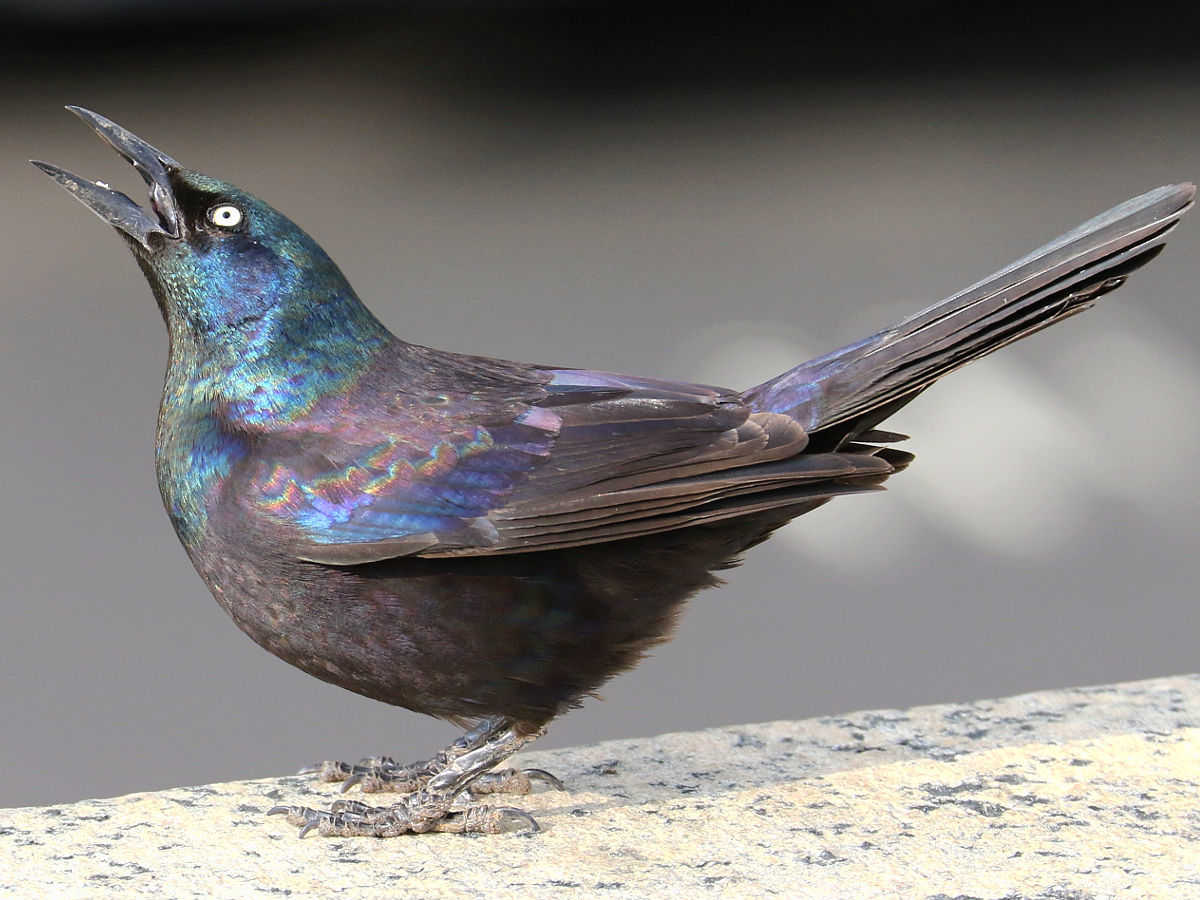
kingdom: Animalia
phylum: Chordata
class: Aves
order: Passeriformes
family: Icteridae
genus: Quiscalus
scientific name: Quiscalus quiscula
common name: Common grackle
